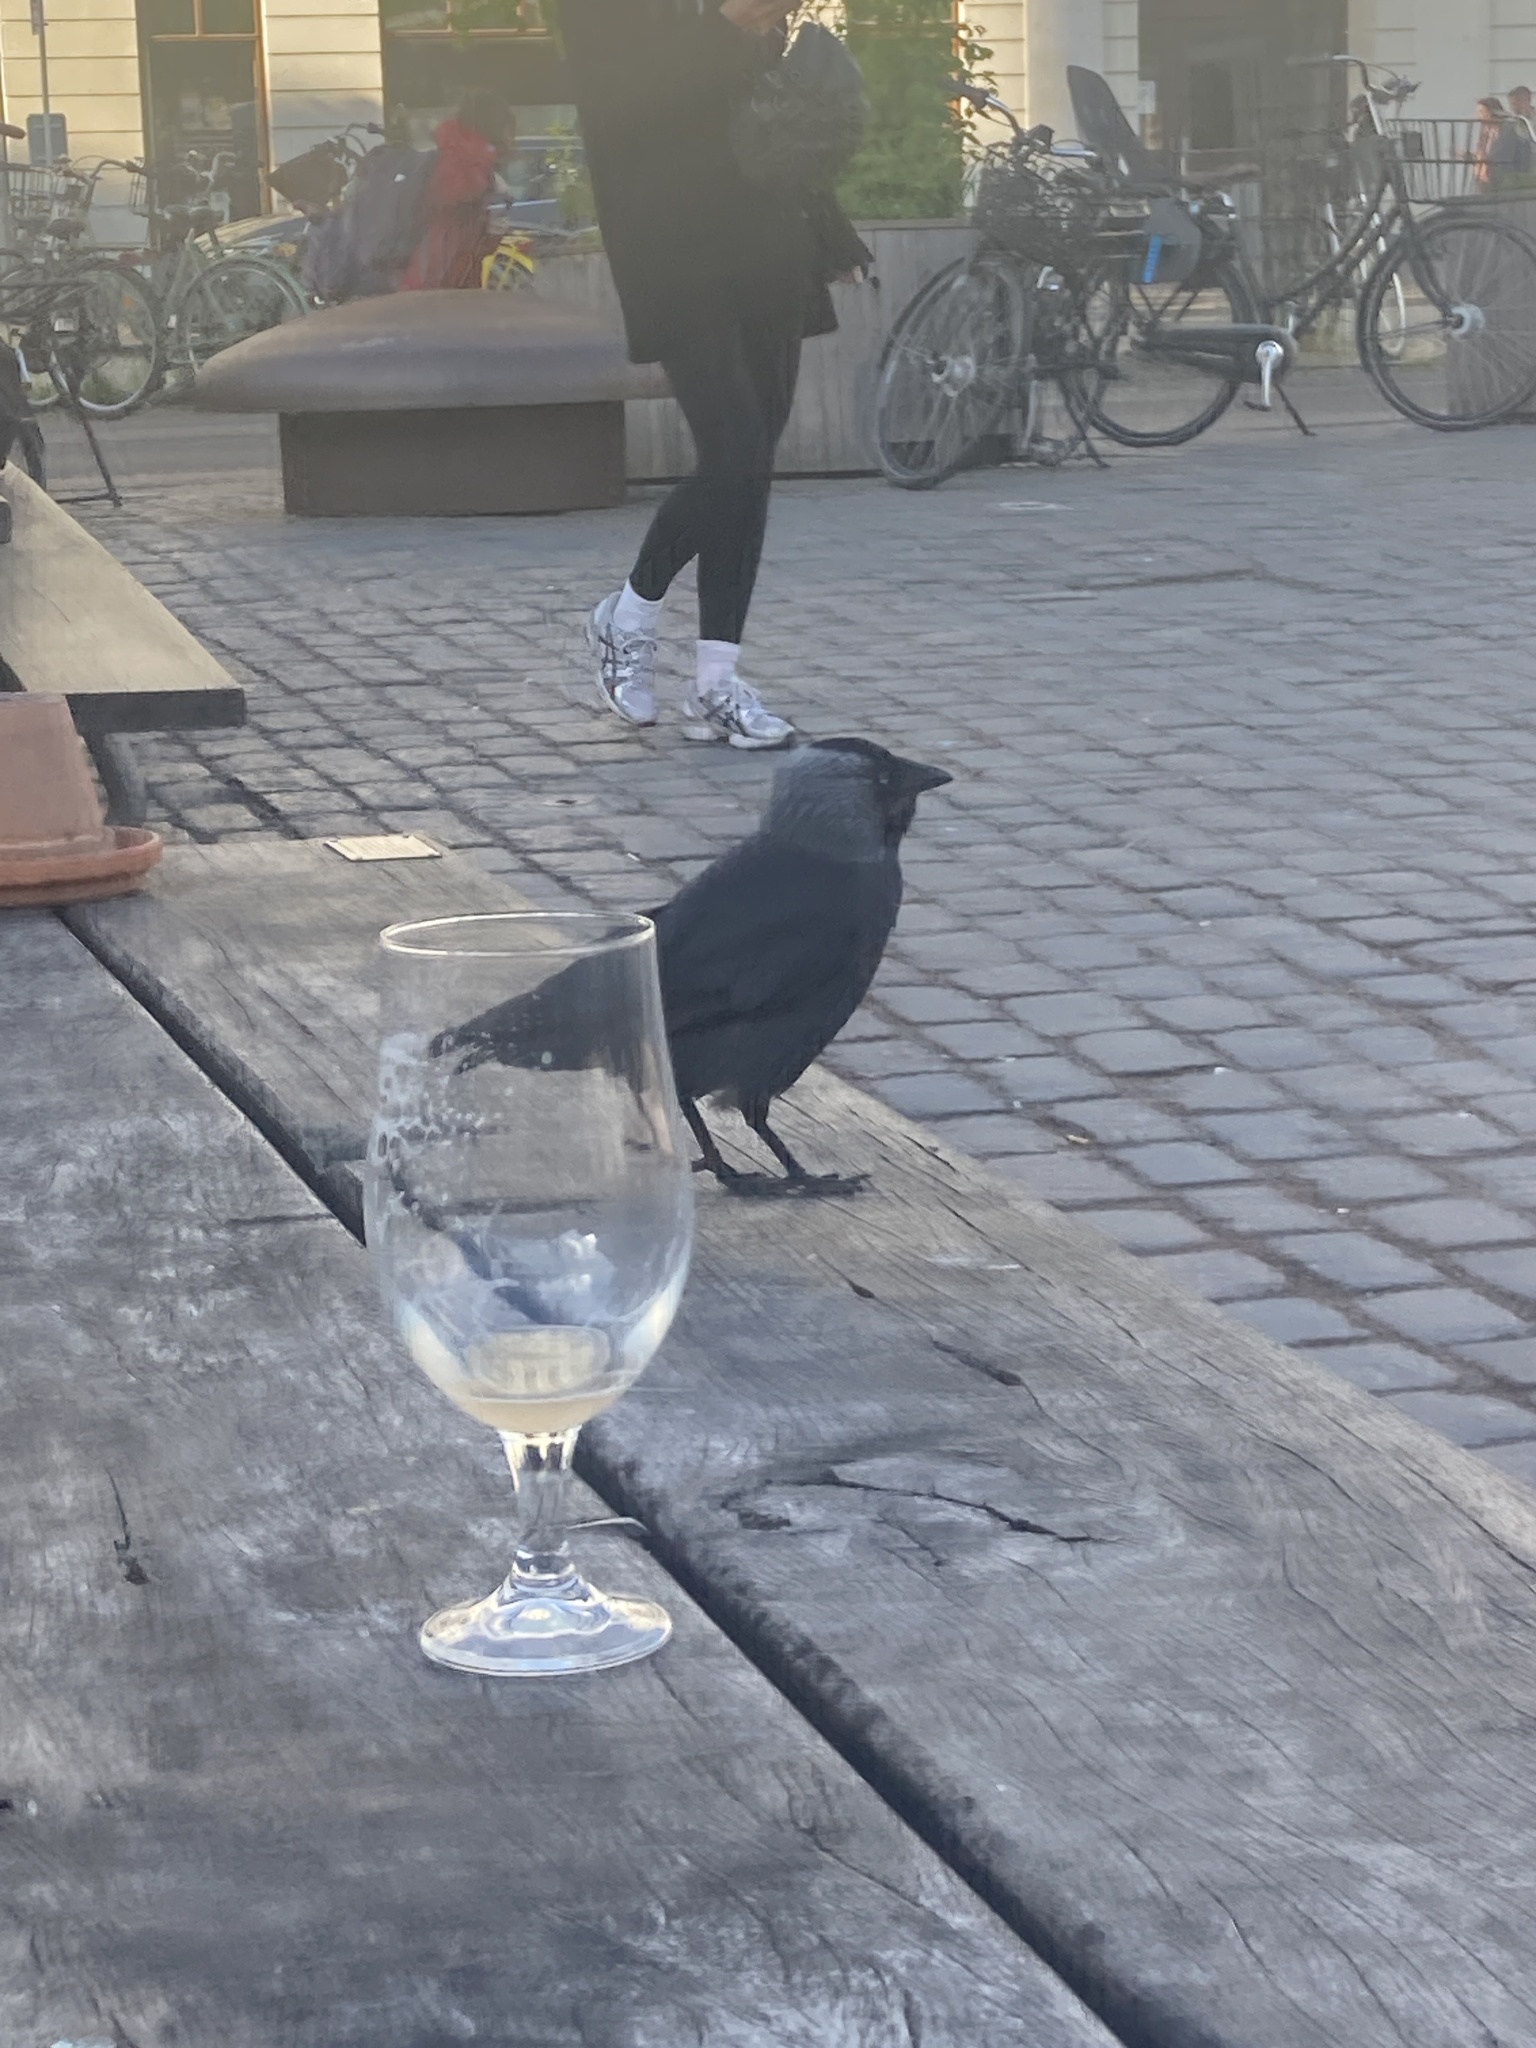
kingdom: Animalia
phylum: Chordata
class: Aves
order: Passeriformes
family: Corvidae
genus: Coloeus
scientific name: Coloeus monedula
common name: Western jackdaw
